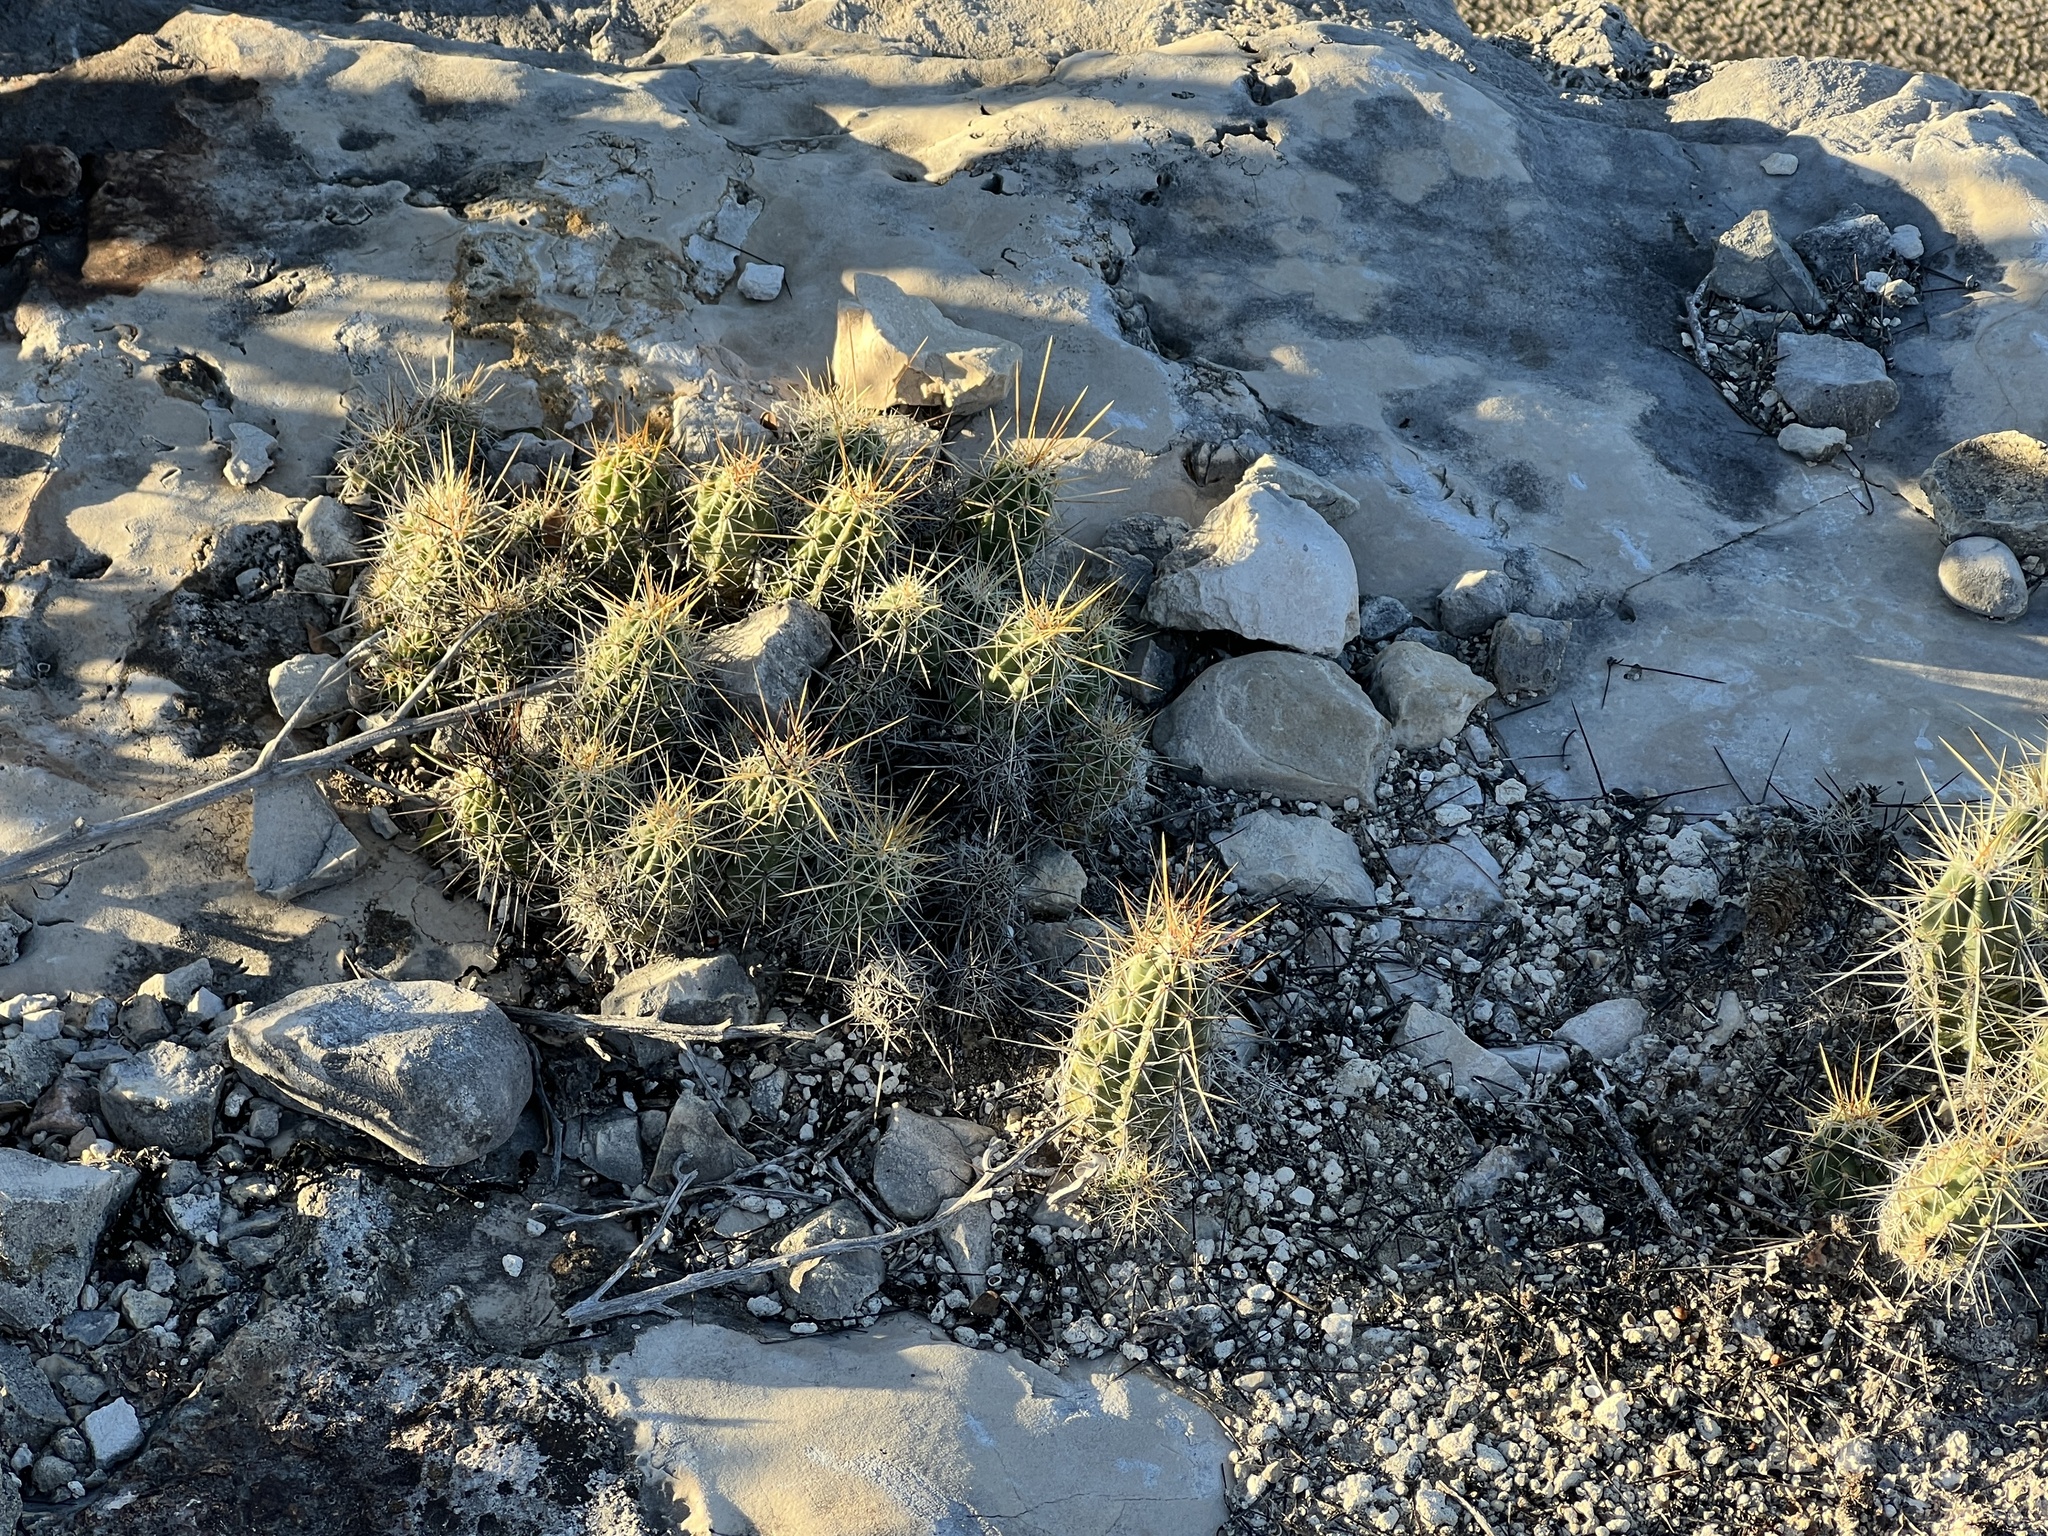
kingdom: Plantae
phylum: Tracheophyta
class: Magnoliopsida
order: Caryophyllales
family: Cactaceae
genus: Echinocereus
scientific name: Echinocereus enneacanthus
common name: Pitaya
